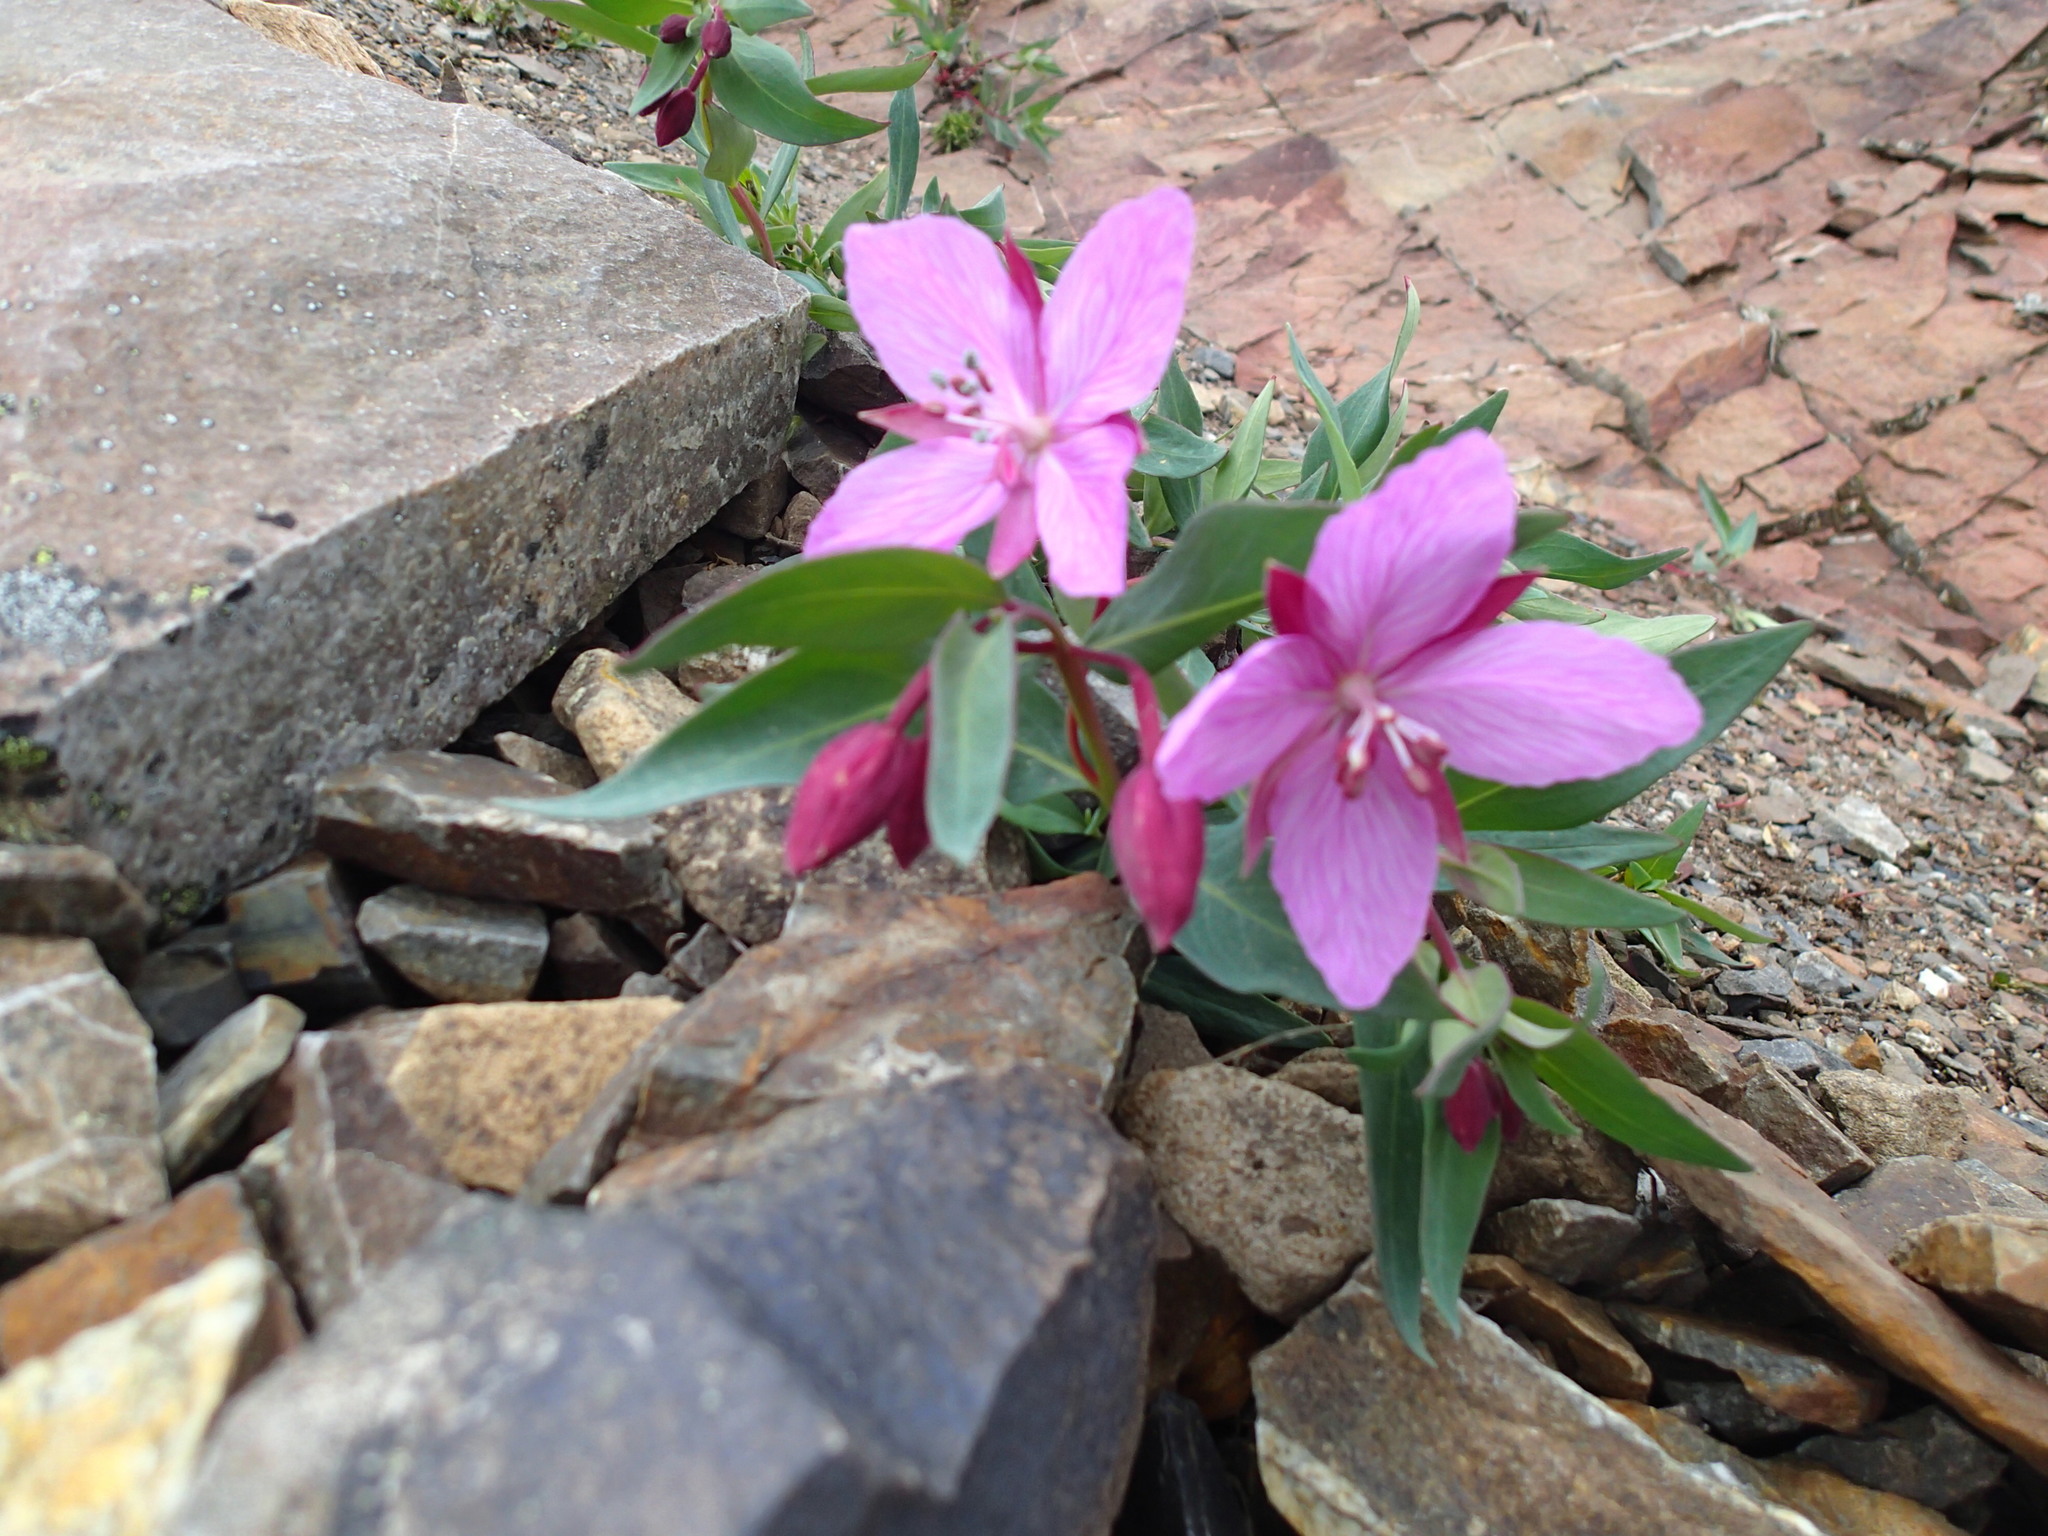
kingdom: Plantae
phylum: Tracheophyta
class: Magnoliopsida
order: Myrtales
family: Onagraceae
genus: Chamaenerion
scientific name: Chamaenerion latifolium
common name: Dwarf fireweed
